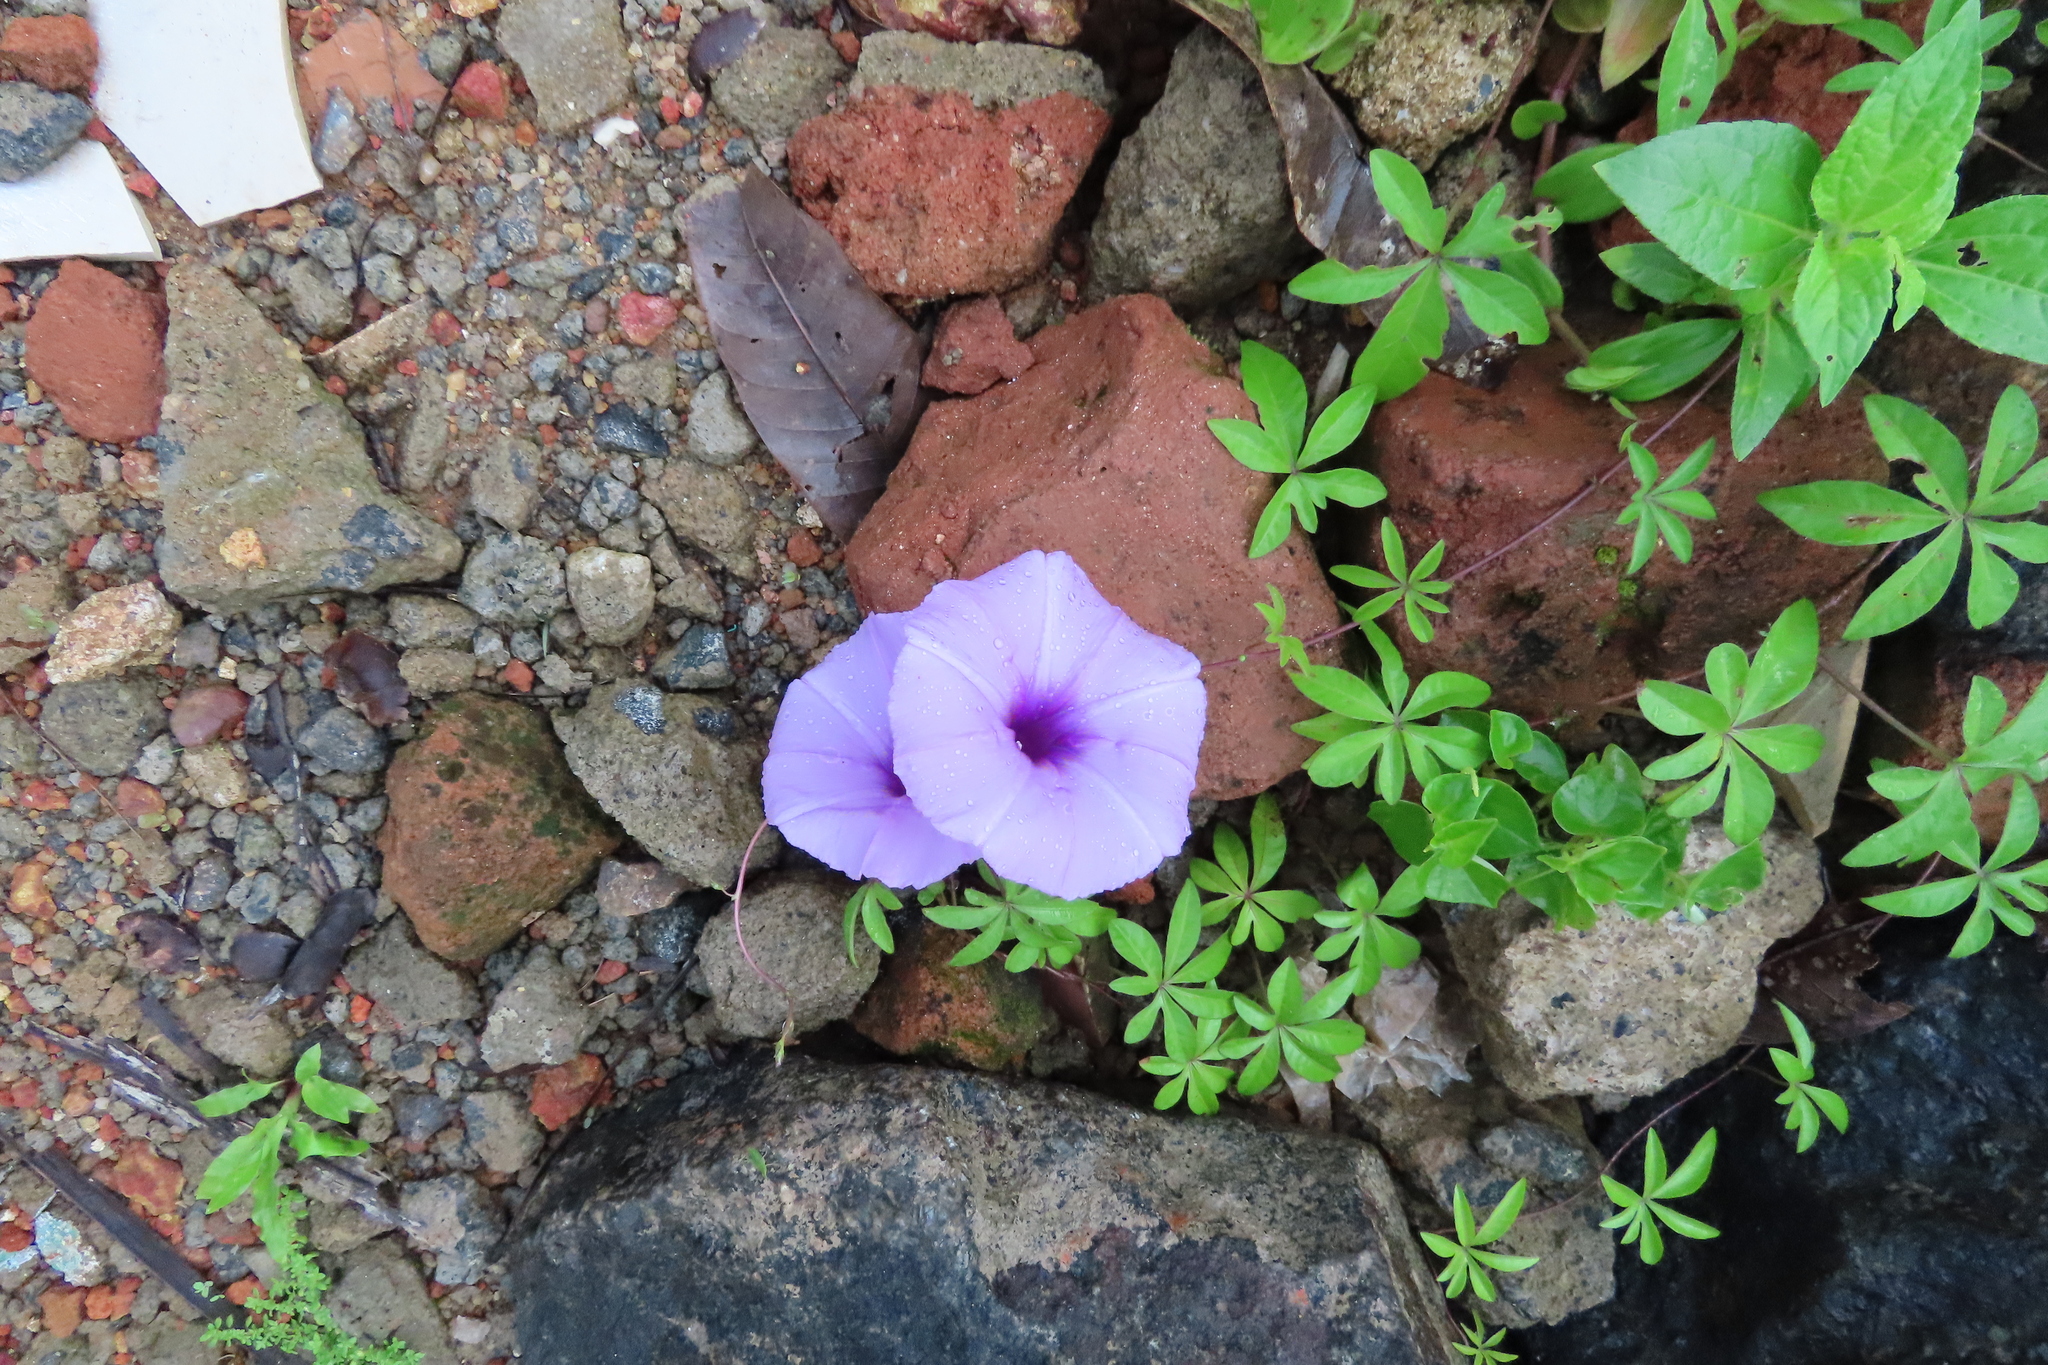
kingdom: Plantae
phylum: Tracheophyta
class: Magnoliopsida
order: Solanales
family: Convolvulaceae
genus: Ipomoea
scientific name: Ipomoea cairica
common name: Mile a minute vine
